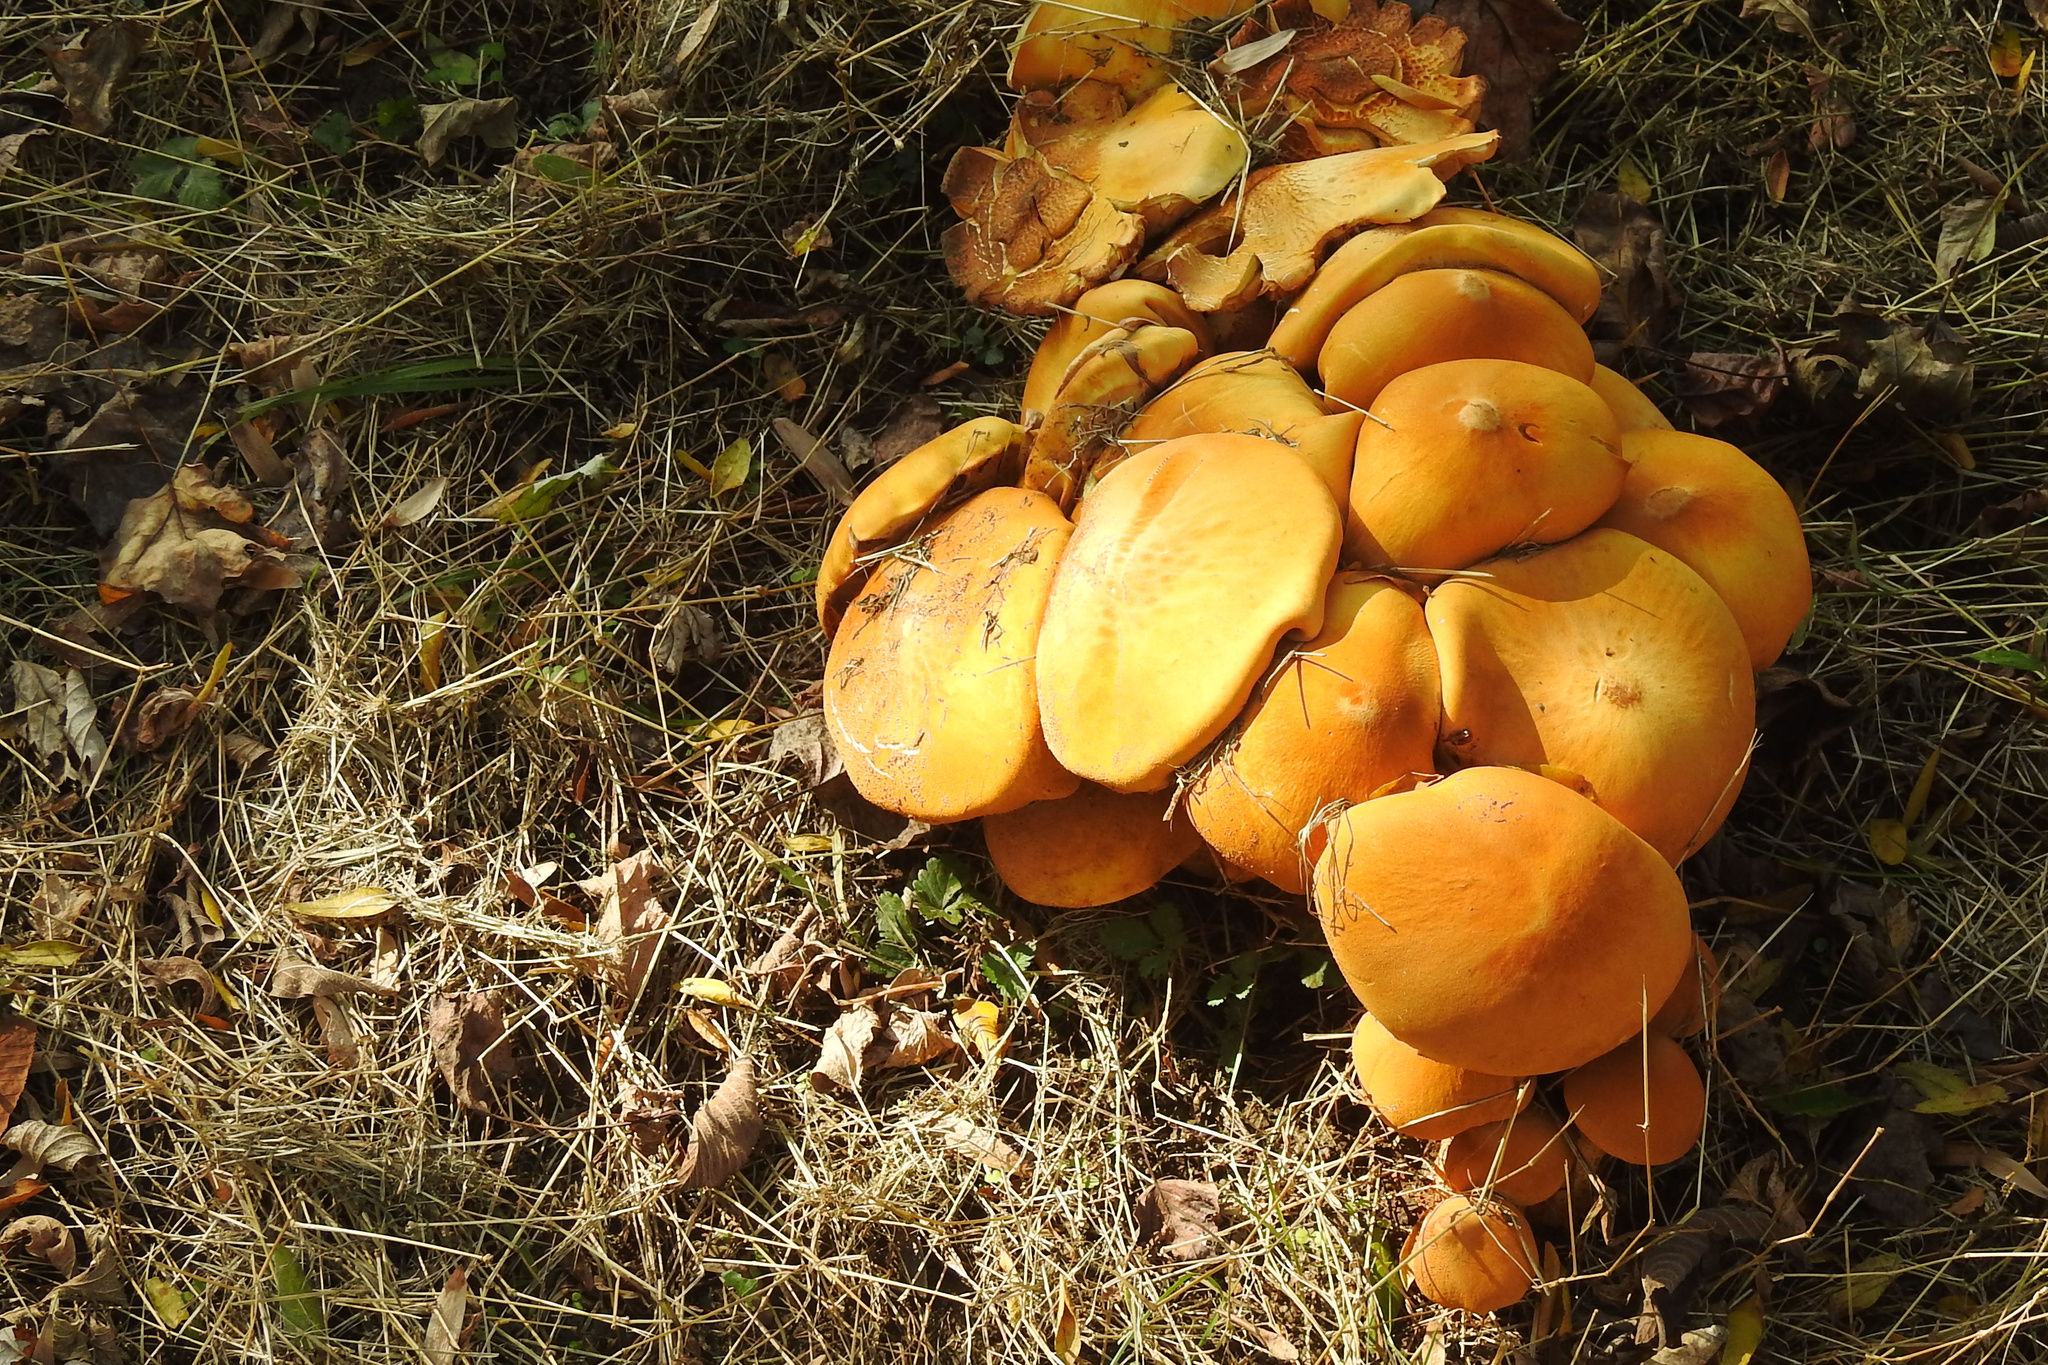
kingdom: Fungi
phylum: Basidiomycota
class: Agaricomycetes
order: Agaricales
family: Tricholomataceae
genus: Phaeolepiota
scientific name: Phaeolepiota aurea
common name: Golden bootleg
